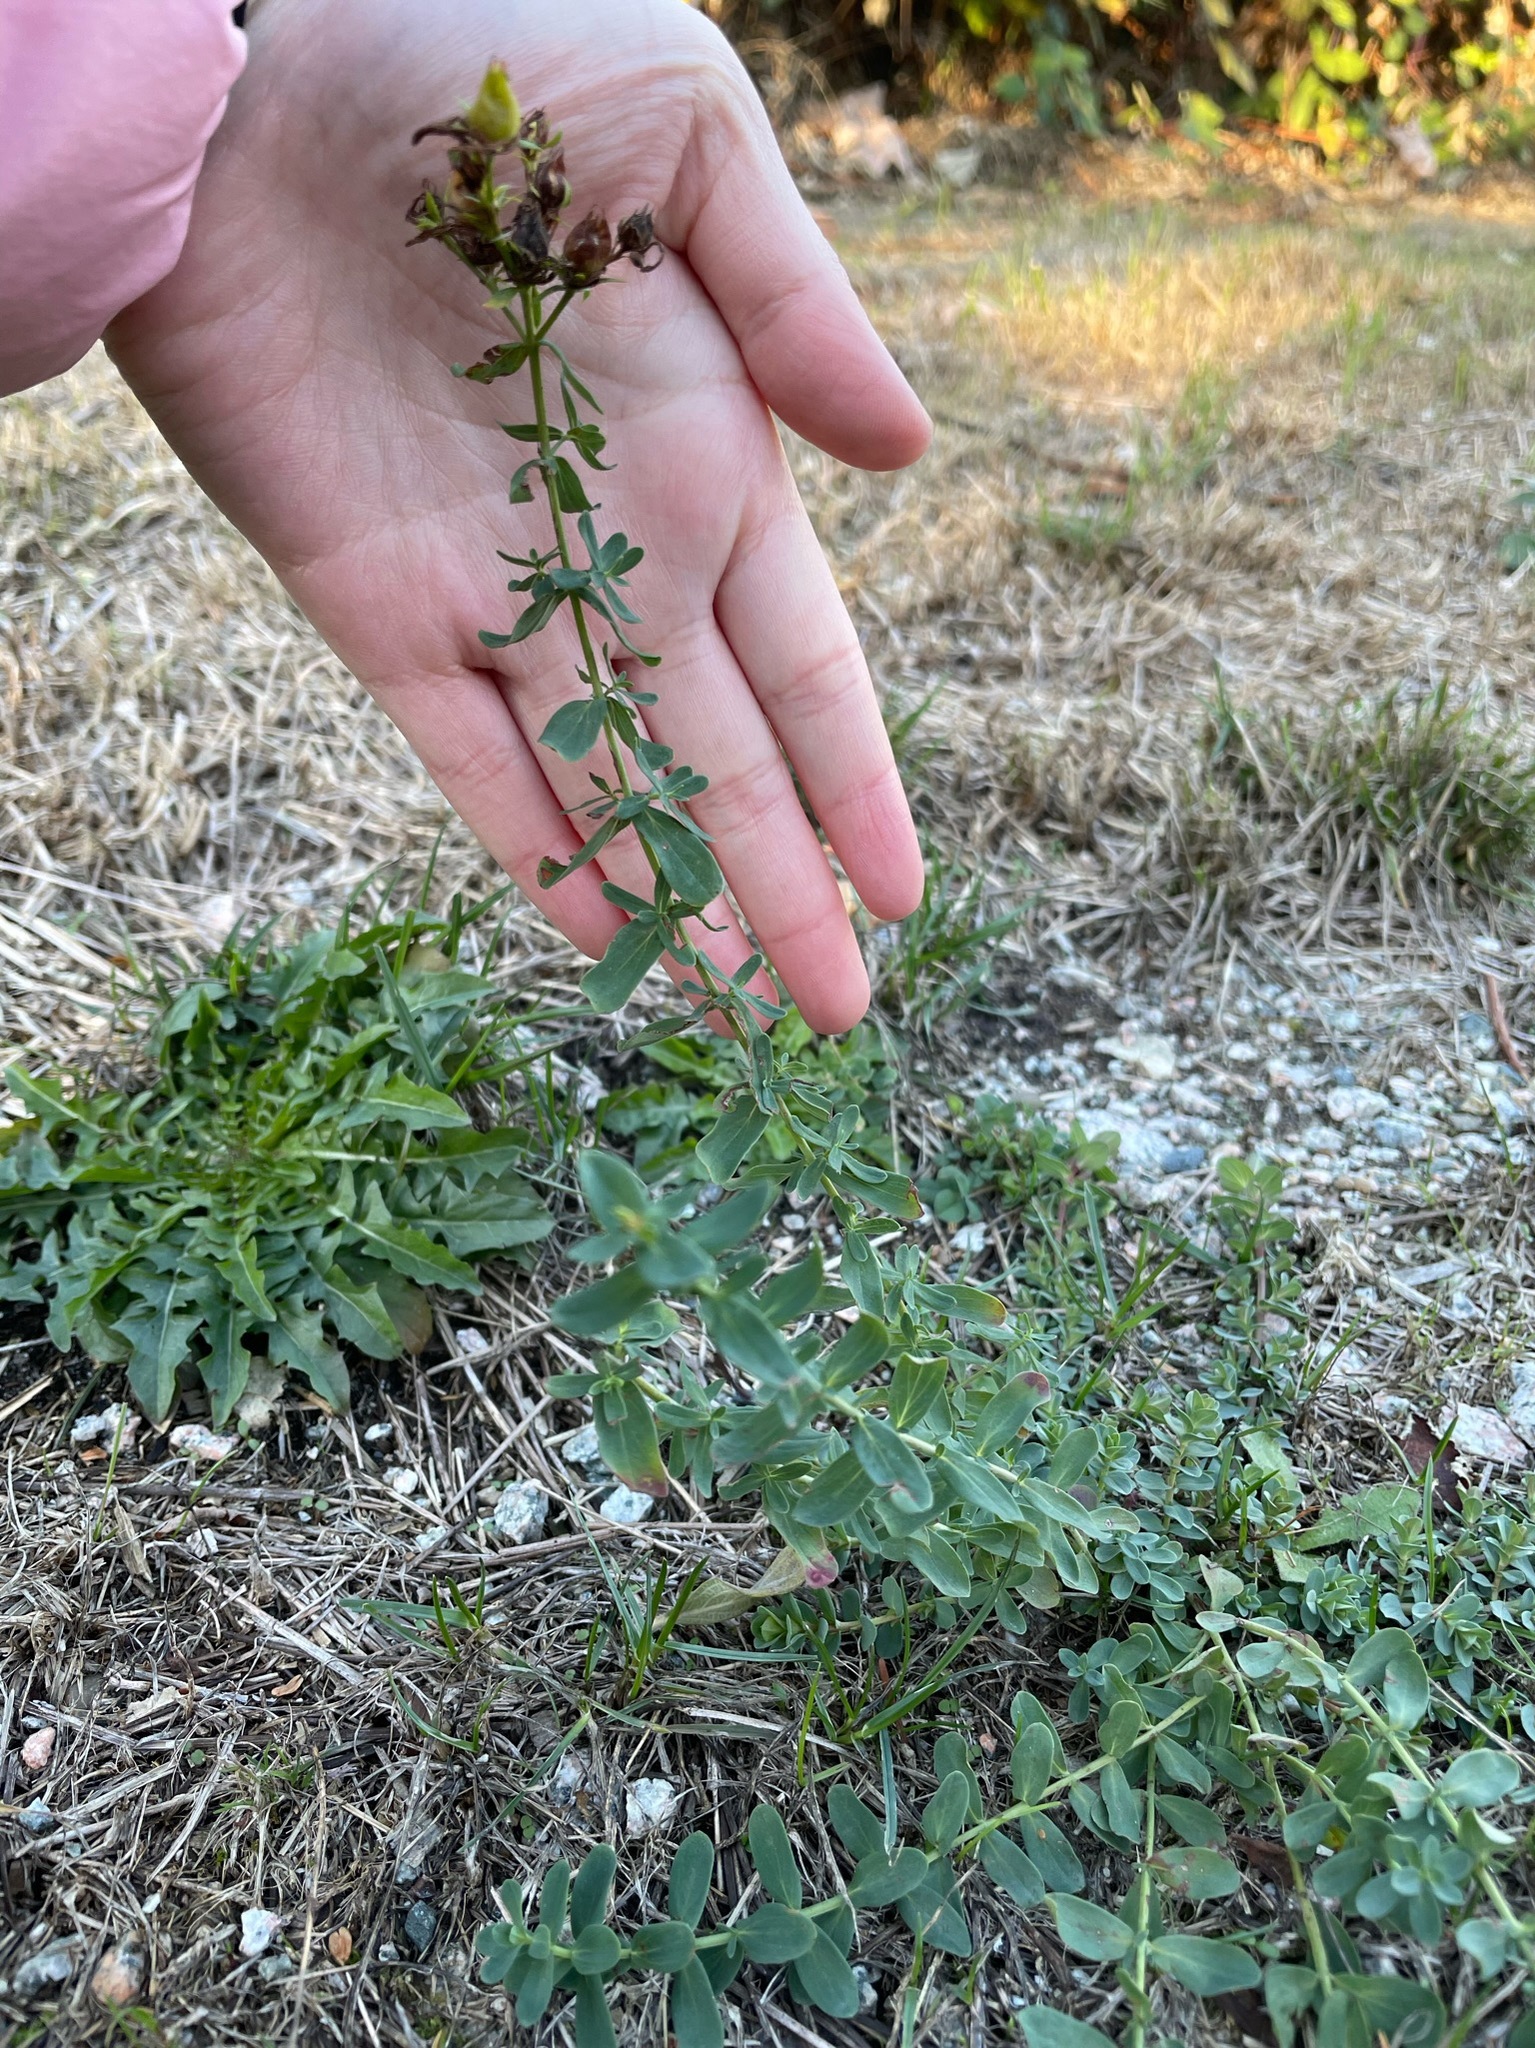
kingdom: Plantae
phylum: Tracheophyta
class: Magnoliopsida
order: Malpighiales
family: Hypericaceae
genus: Hypericum
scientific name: Hypericum perforatum
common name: Common st. johnswort
